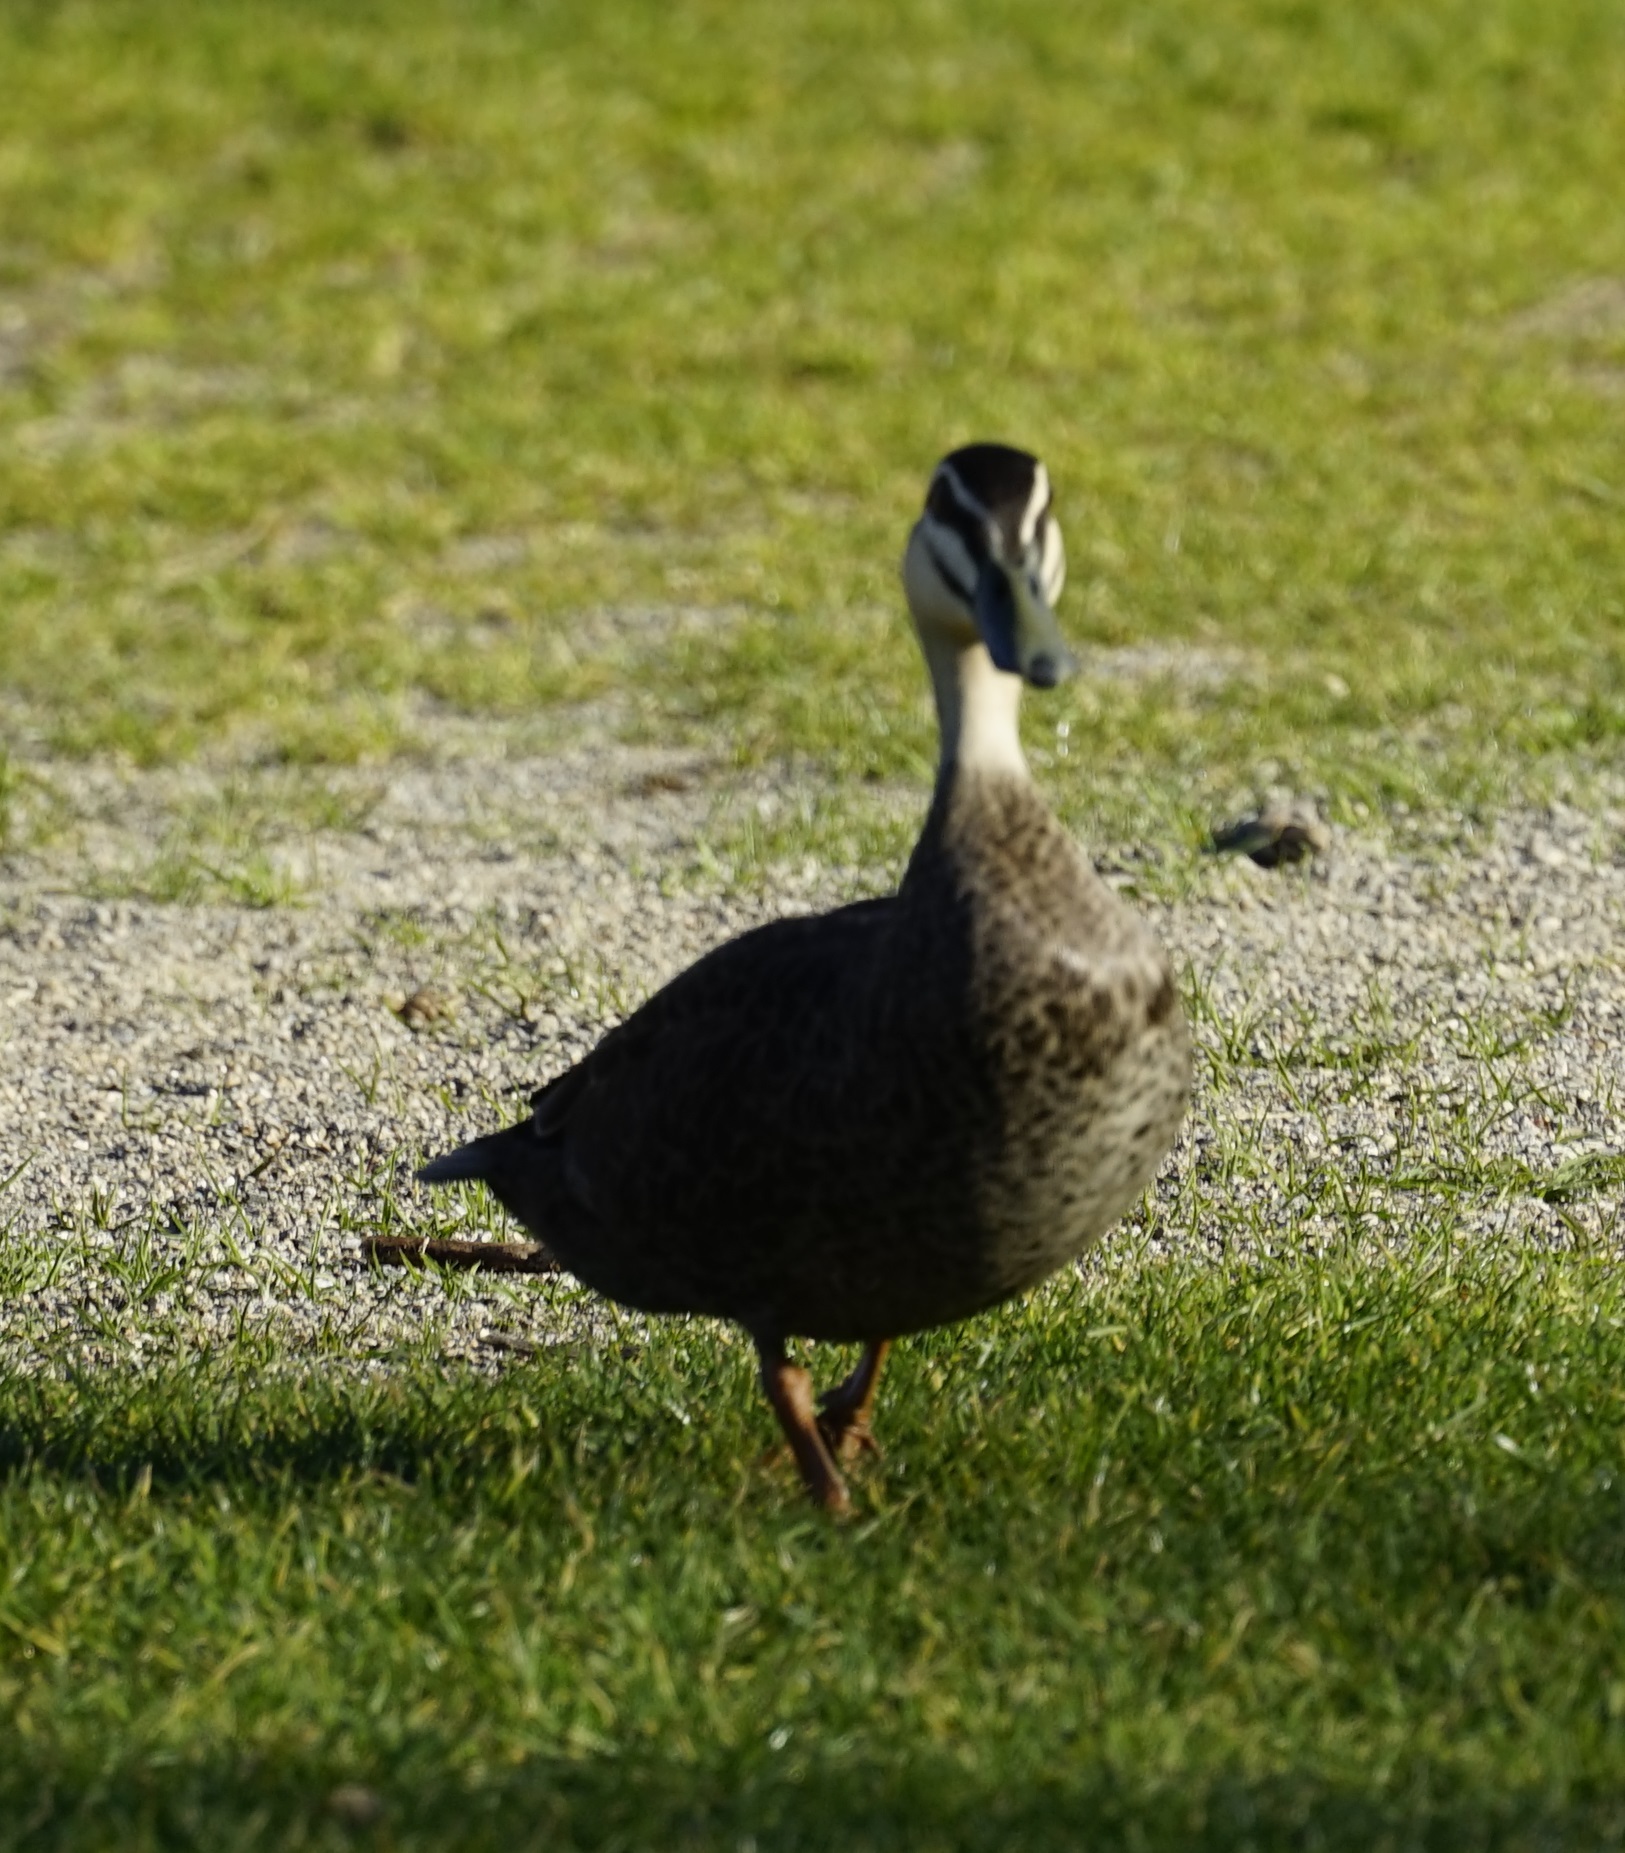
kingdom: Animalia
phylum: Chordata
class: Aves
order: Anseriformes
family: Anatidae
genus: Anas
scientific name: Anas
